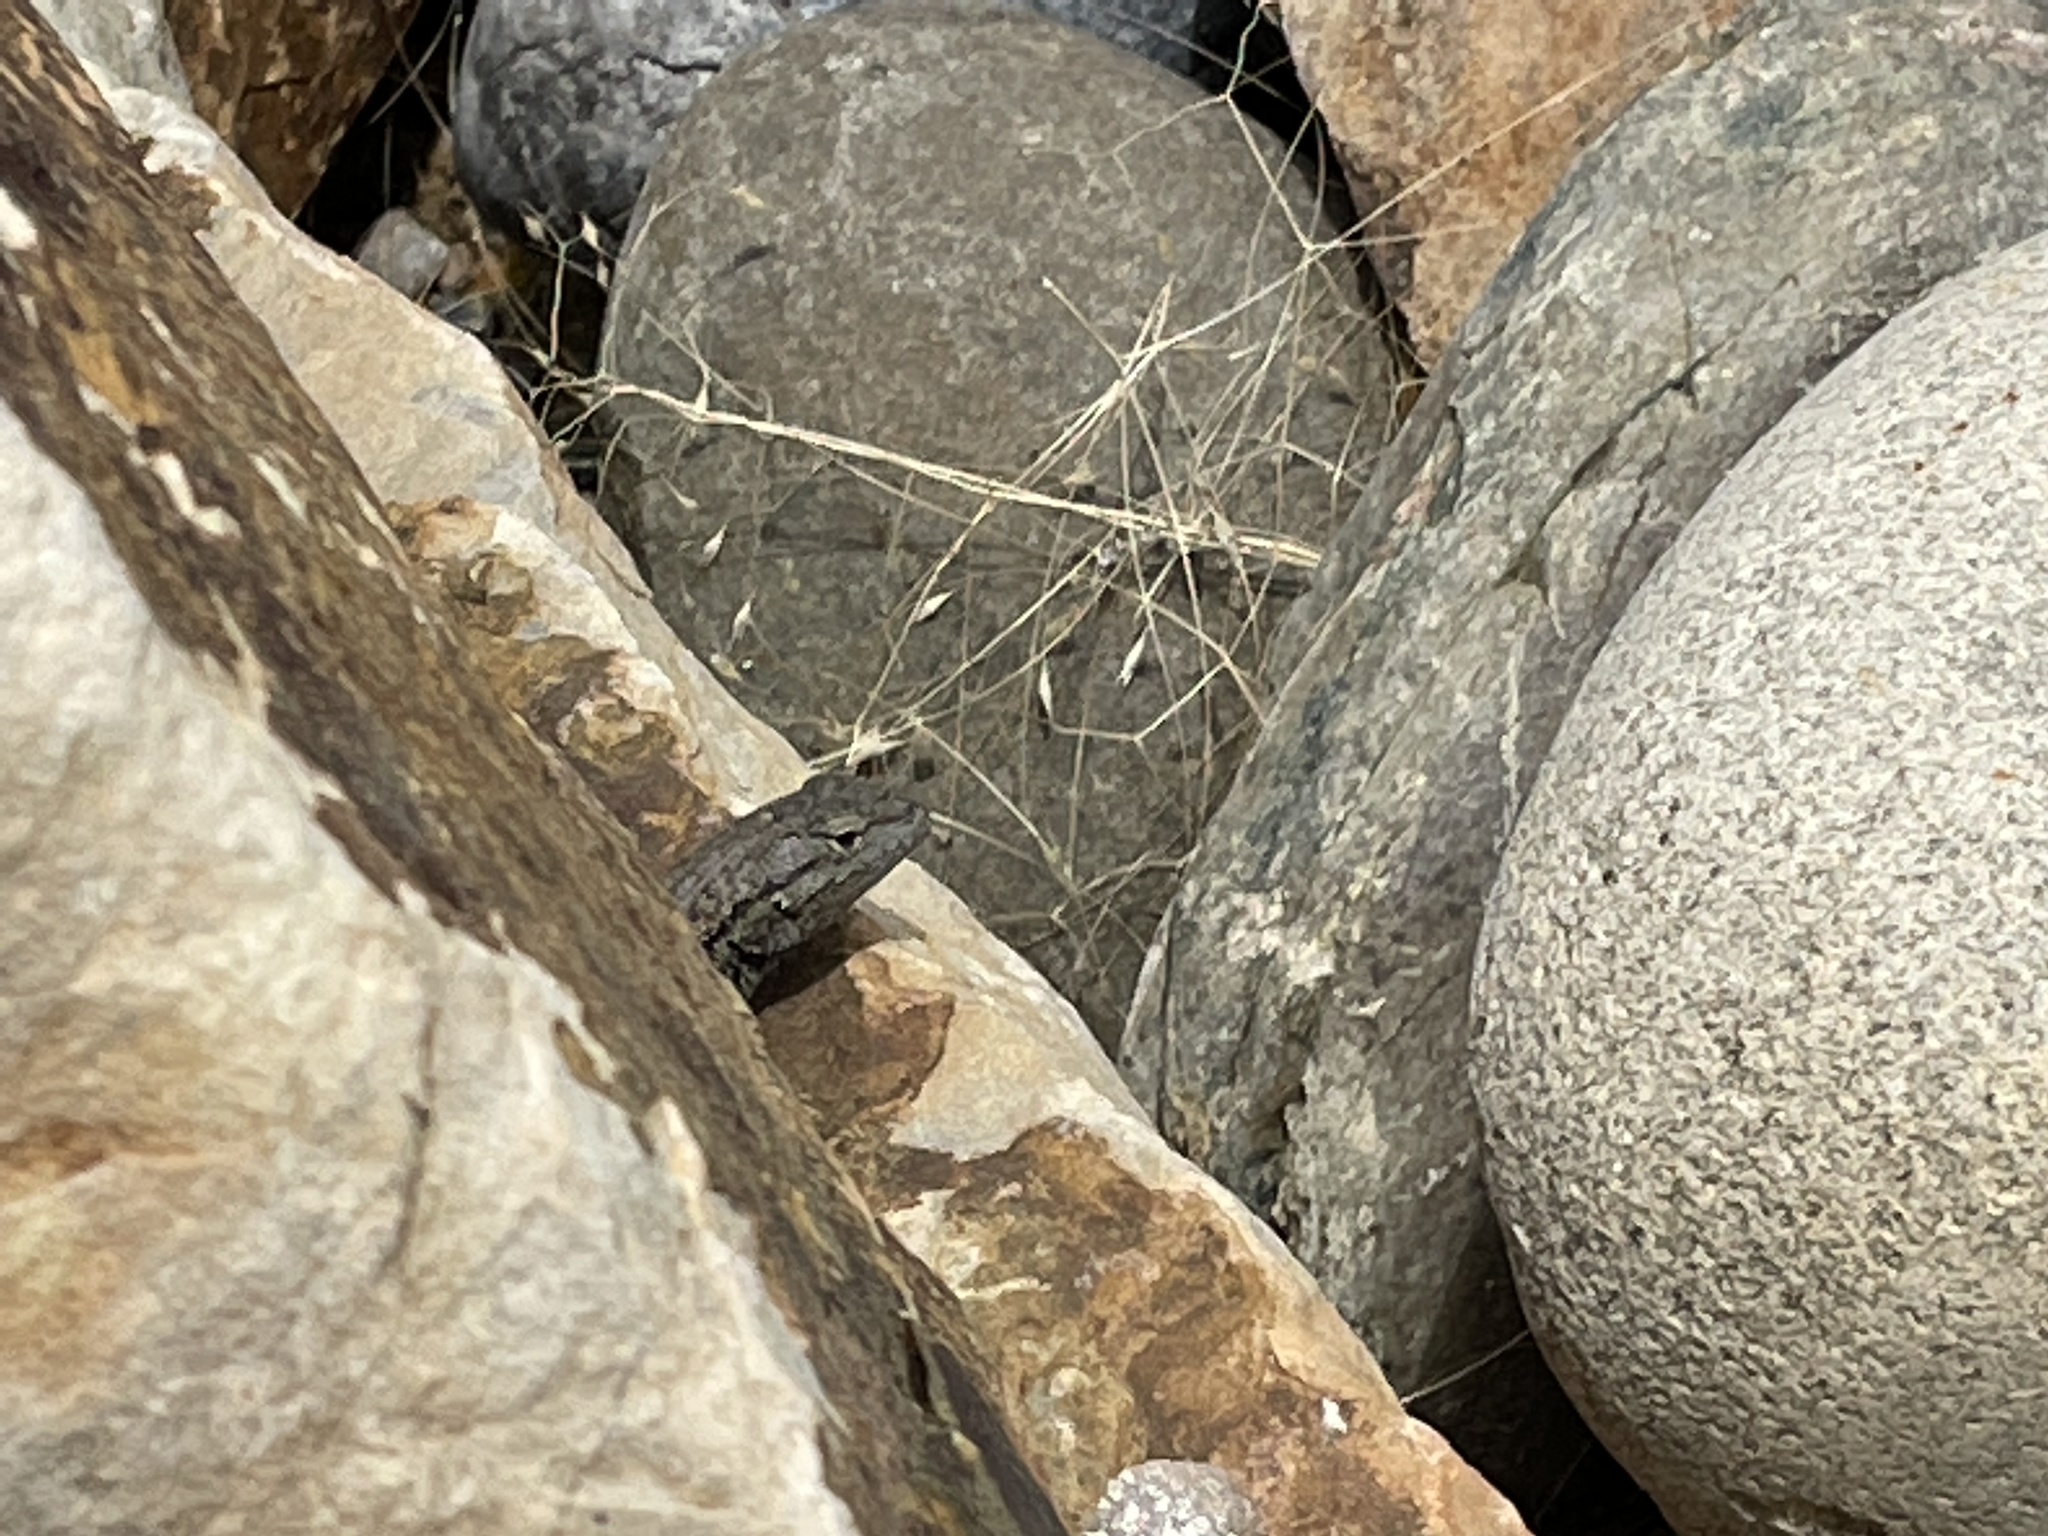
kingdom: Animalia
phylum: Chordata
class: Squamata
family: Phrynosomatidae
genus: Sceloporus
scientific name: Sceloporus tristichus
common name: Plateau fence lizard
